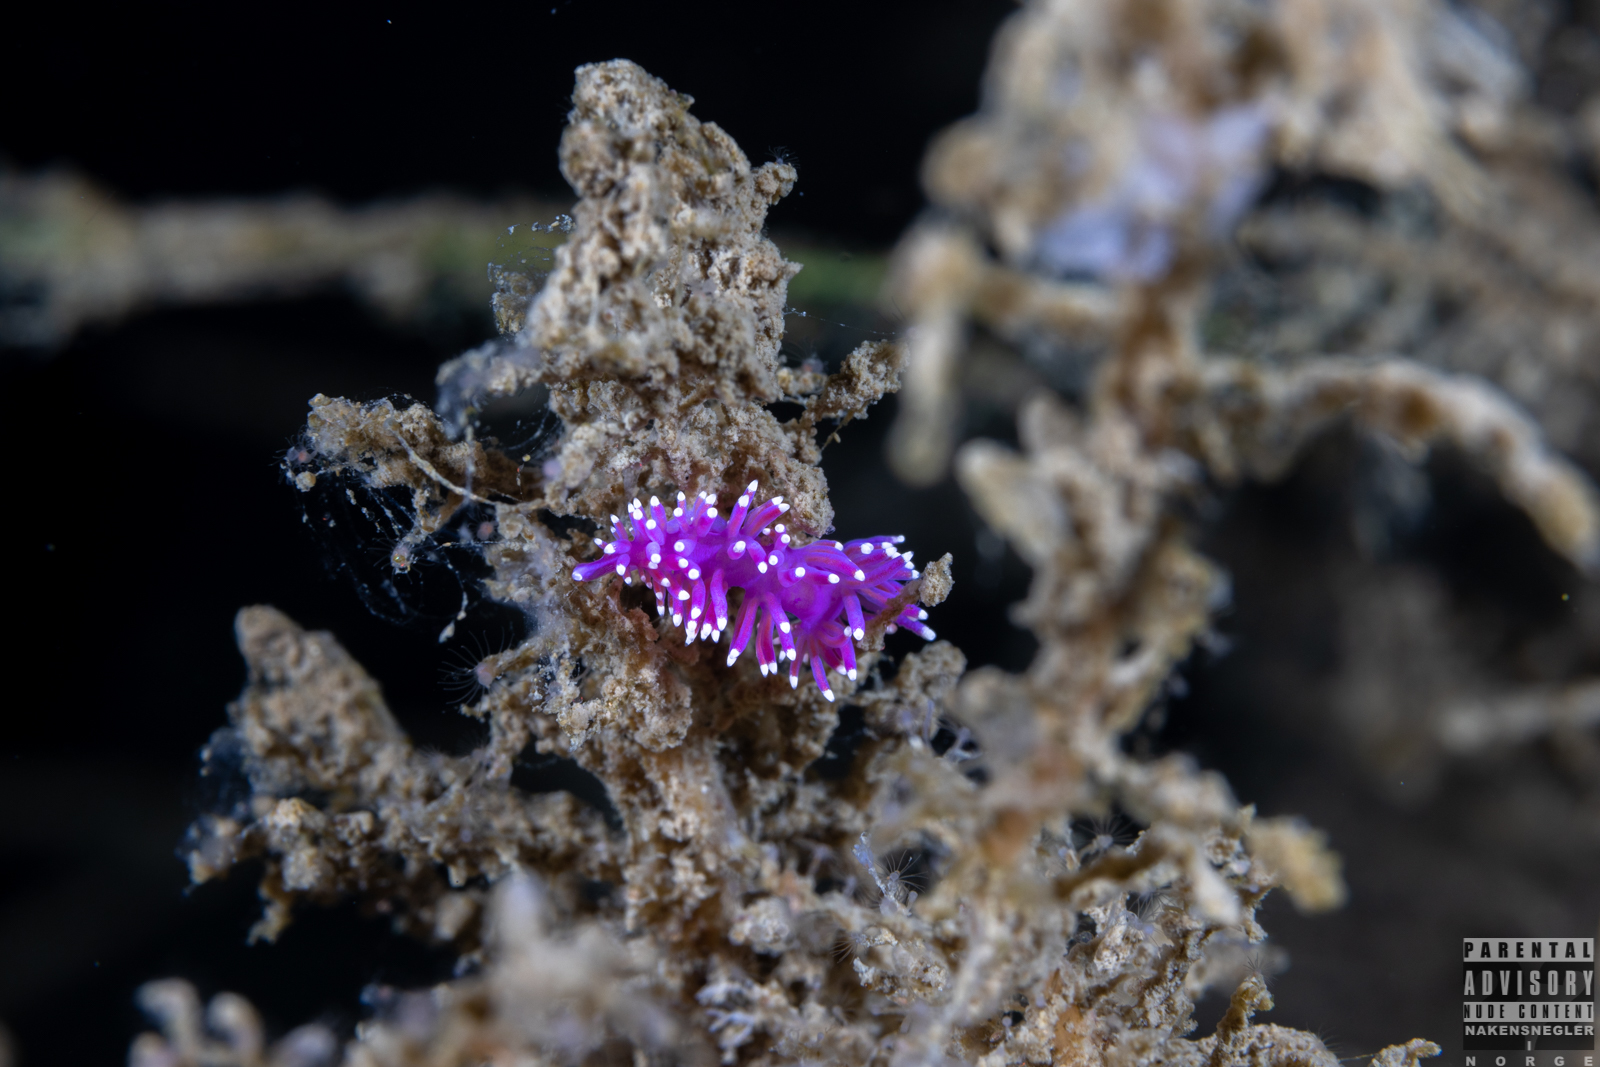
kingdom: Animalia
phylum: Mollusca
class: Gastropoda
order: Nudibranchia
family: Flabellinidae
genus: Edmundsella
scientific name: Edmundsella pedata
